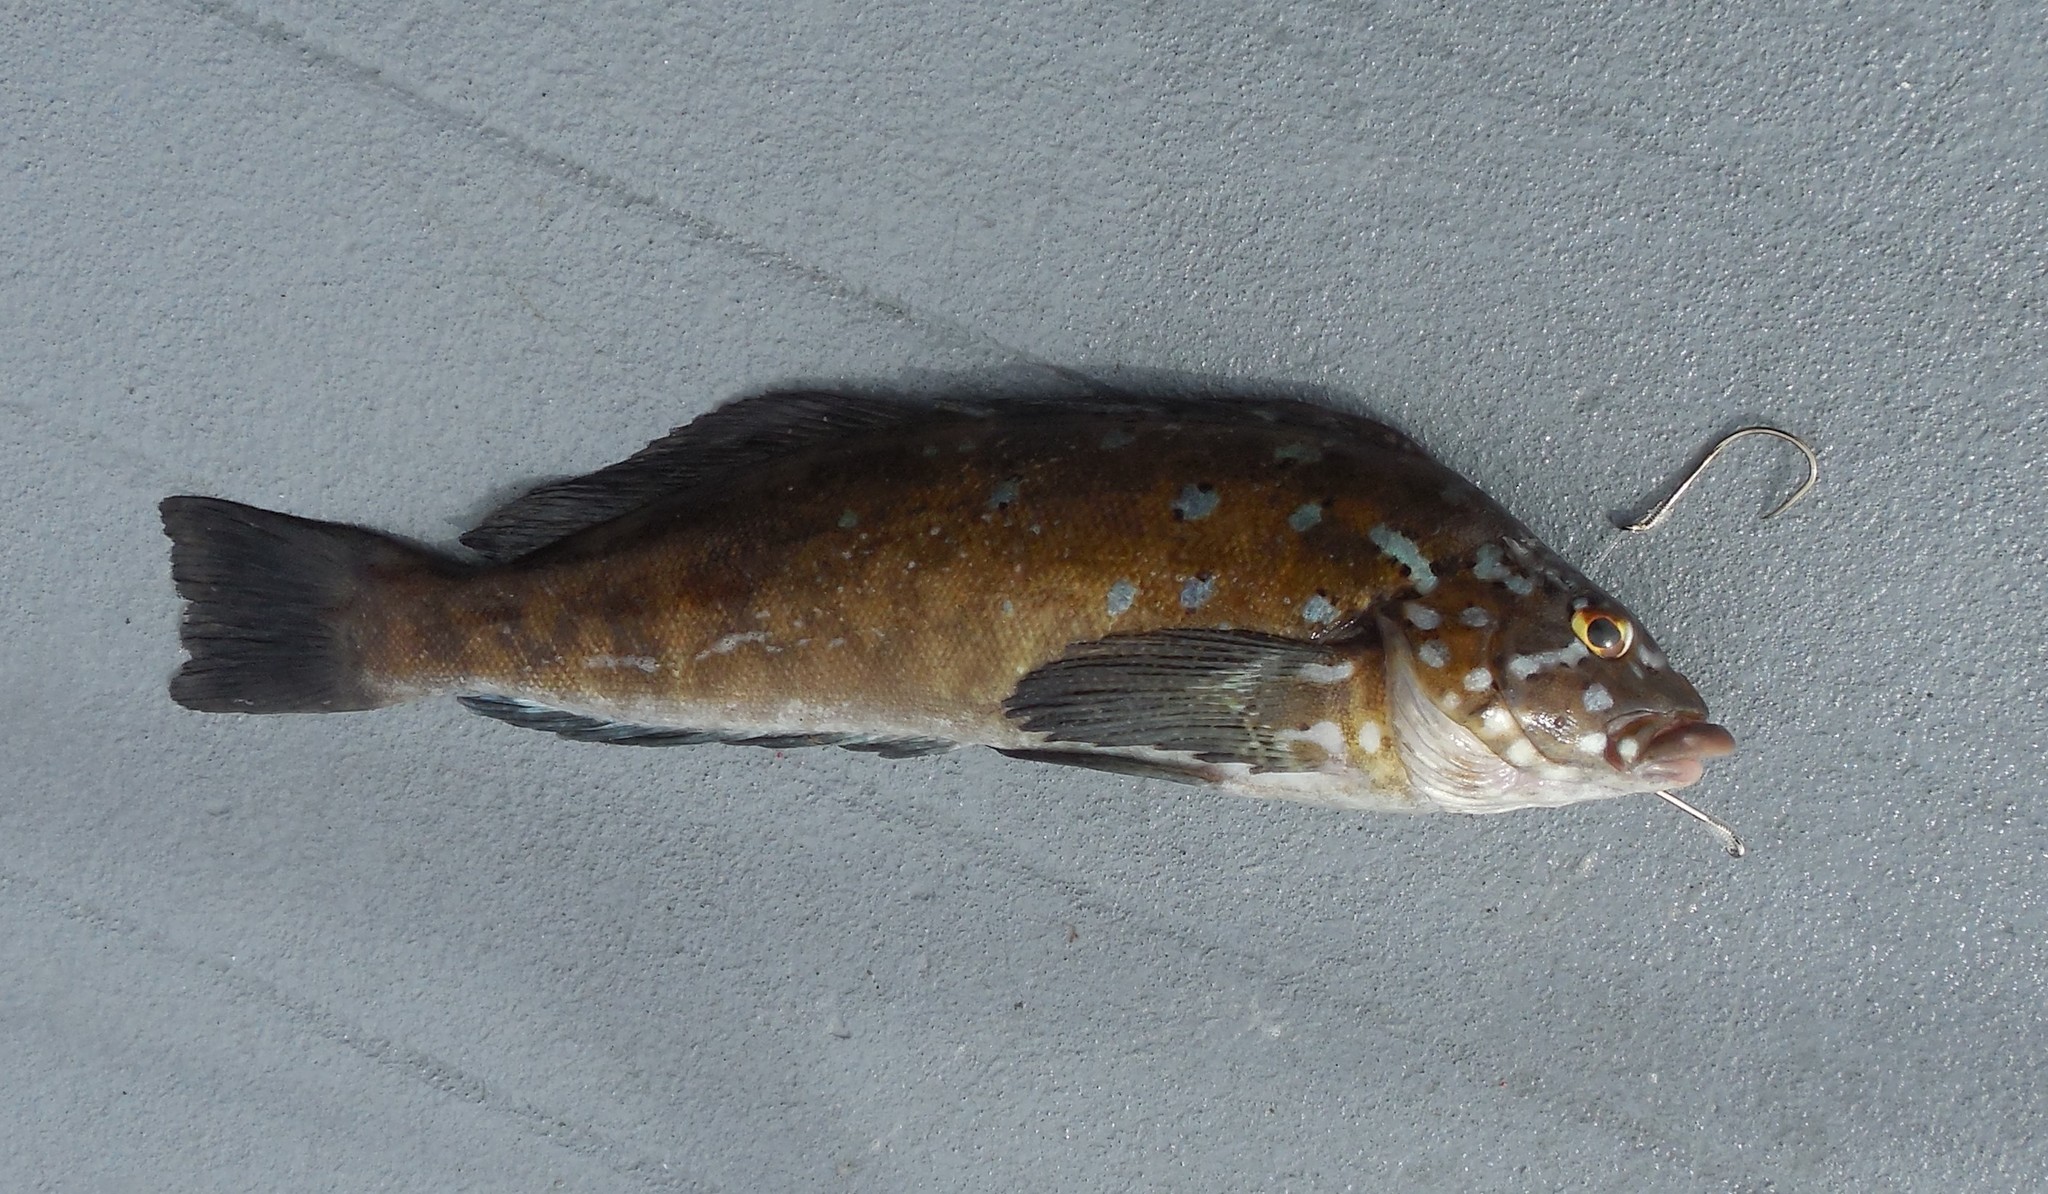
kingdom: Animalia
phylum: Chordata
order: Scorpaeniformes
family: Hexagrammidae
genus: Hexagrammos
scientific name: Hexagrammos decagrammus
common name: Kelp greenling
